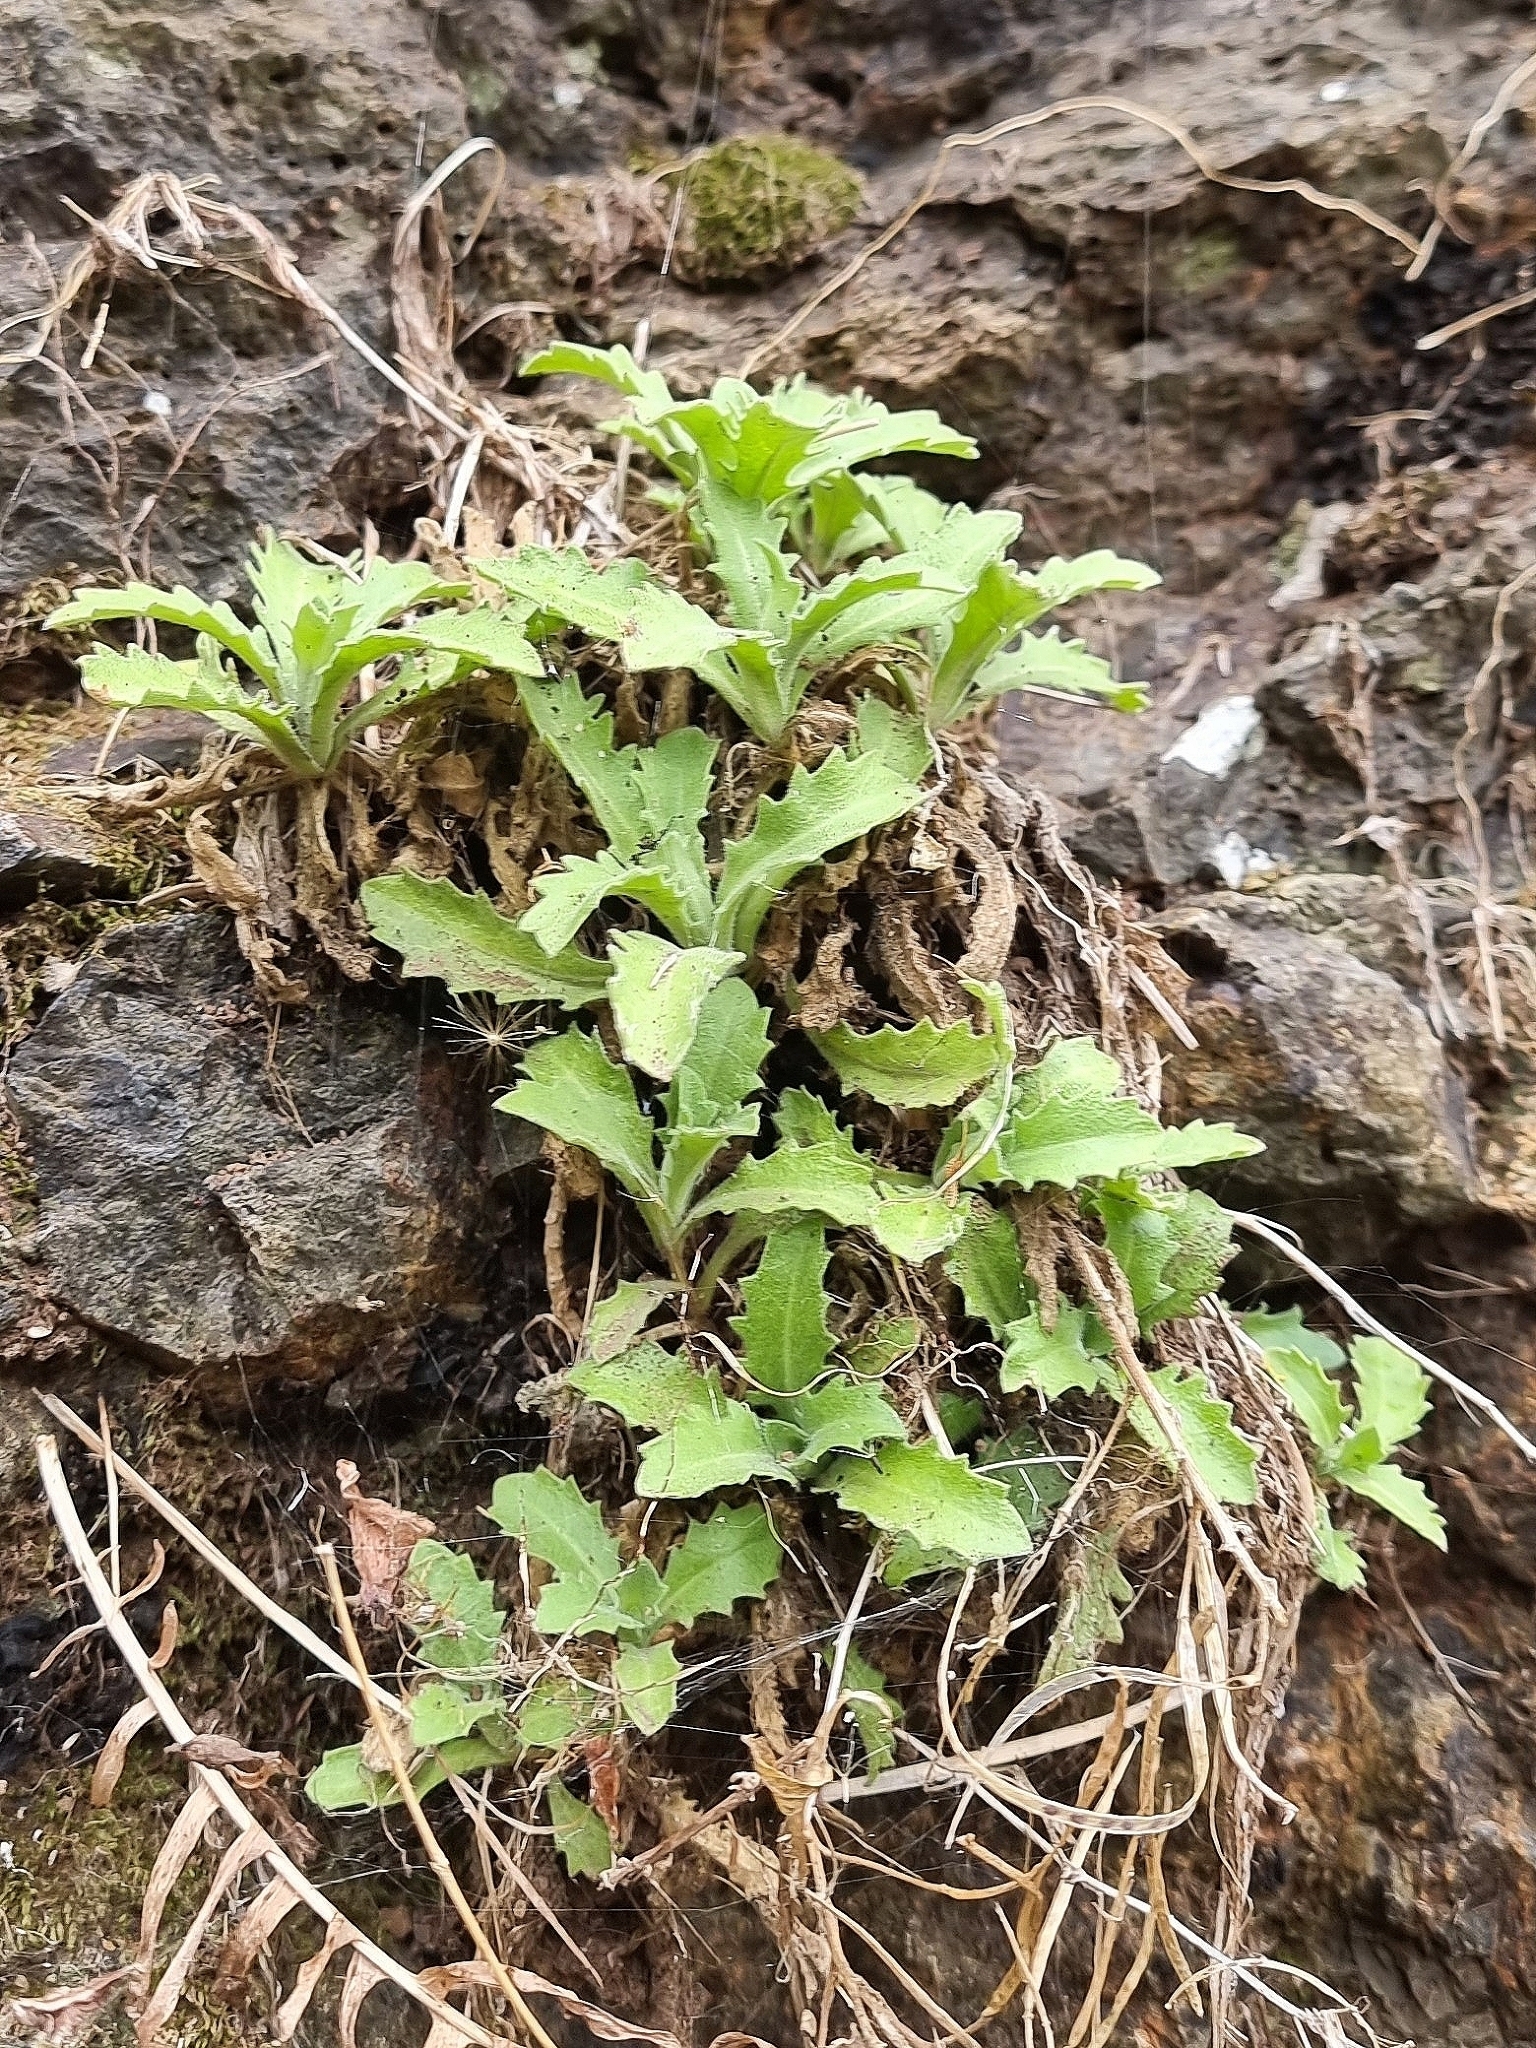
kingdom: Plantae
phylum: Tracheophyta
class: Magnoliopsida
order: Brassicales
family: Brassicaceae
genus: Arabis
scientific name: Arabis caucasica
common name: Gray rockcress
